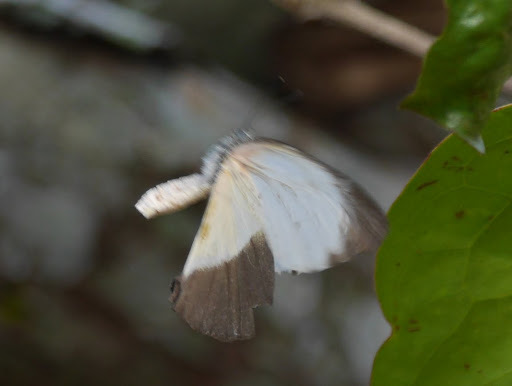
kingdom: Animalia
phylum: Arthropoda
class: Insecta
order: Lepidoptera
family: Pieridae
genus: Mylothris
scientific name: Mylothris chloris
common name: Western dotted border
